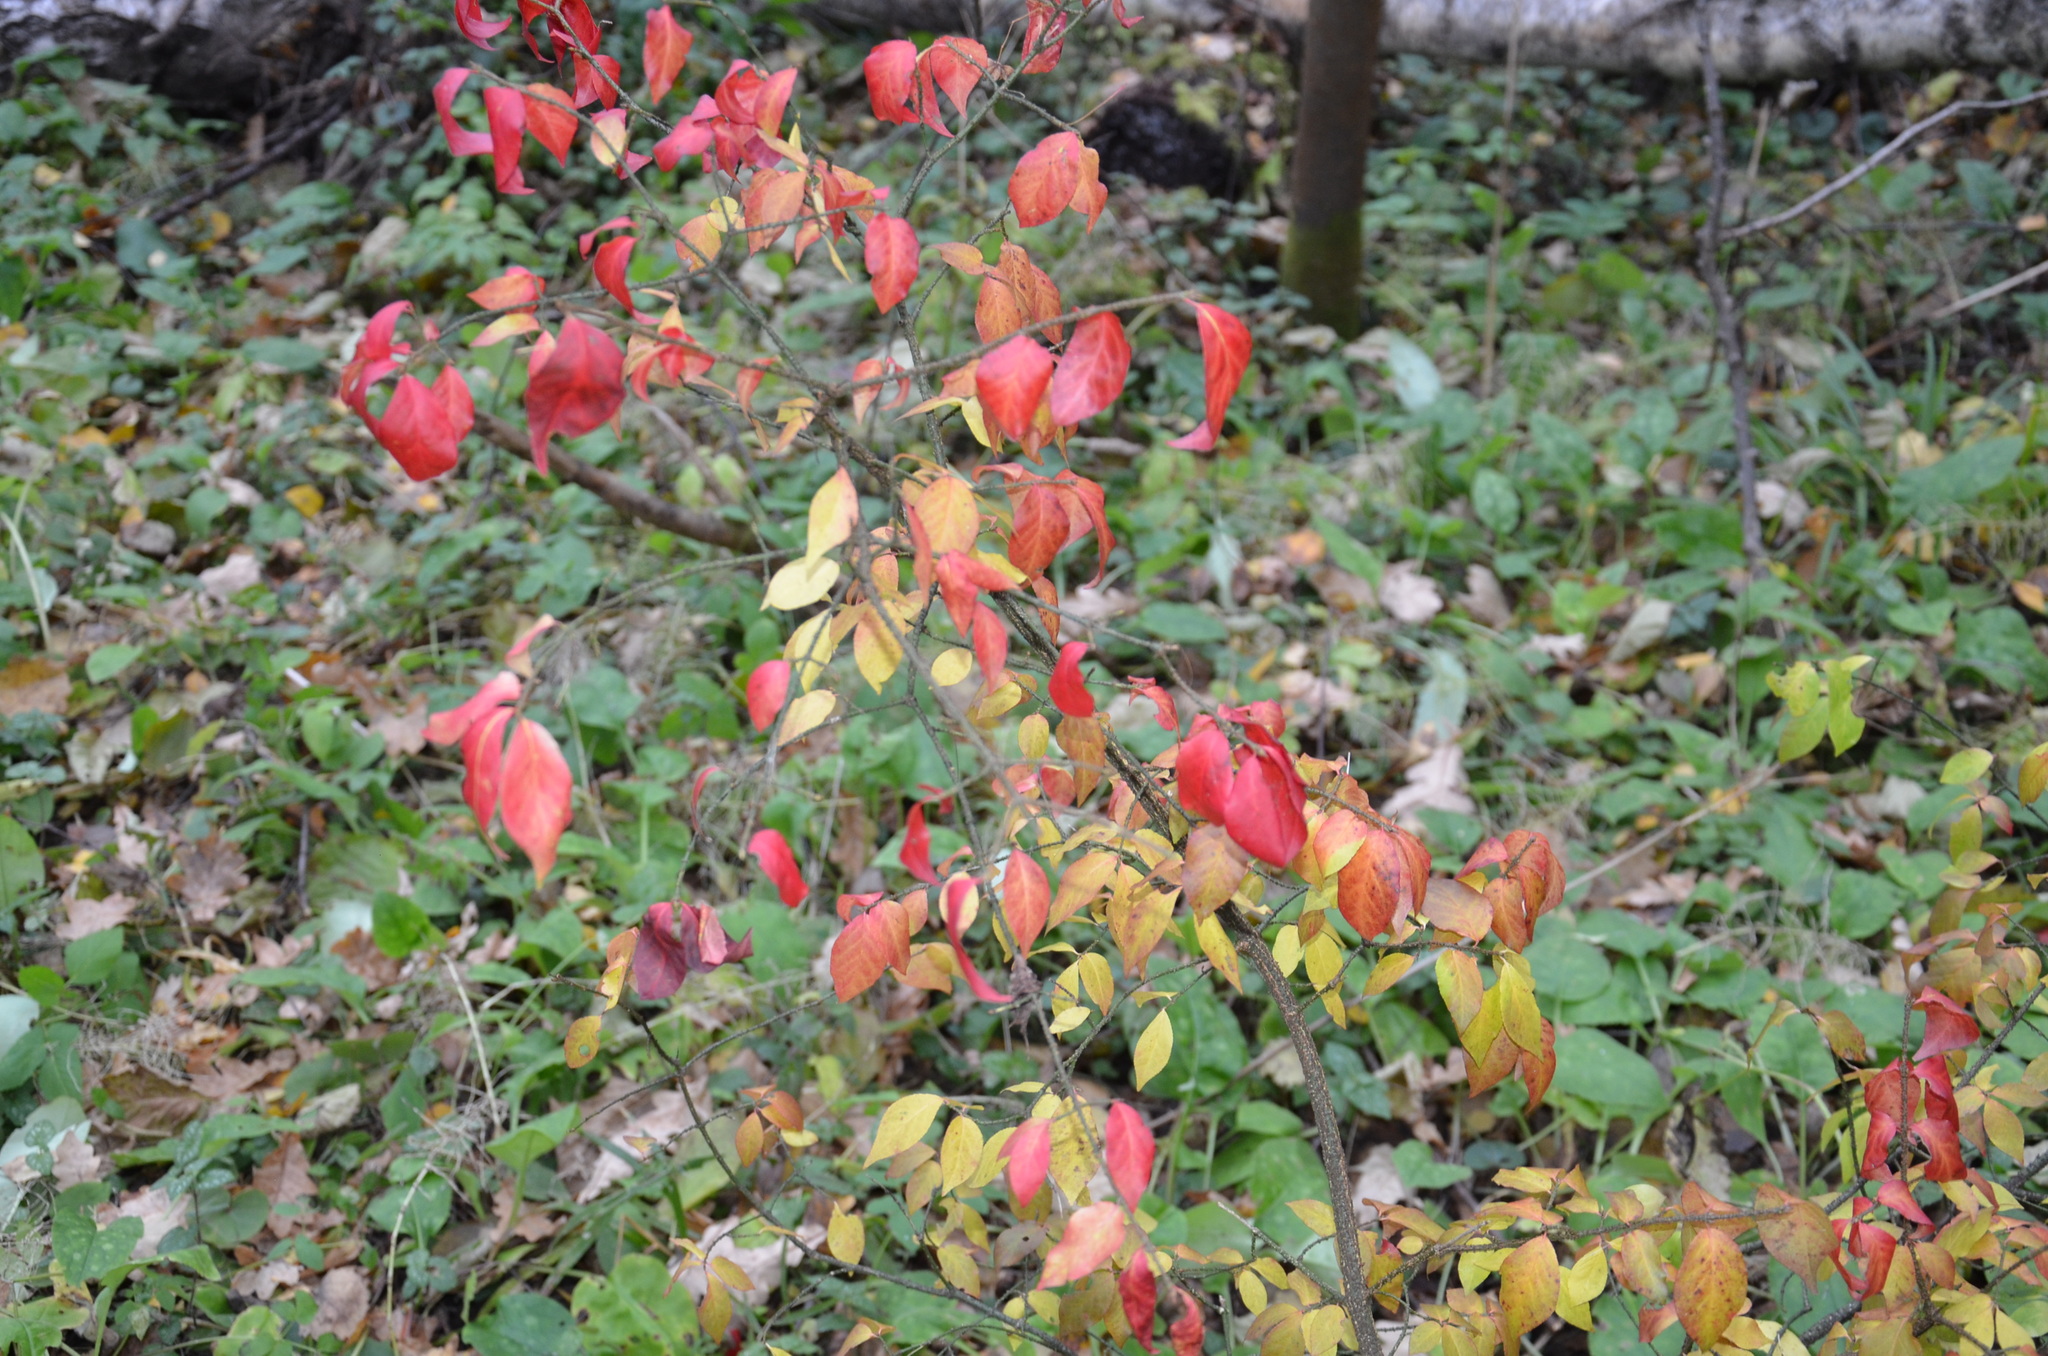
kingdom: Plantae
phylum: Tracheophyta
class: Magnoliopsida
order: Celastrales
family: Celastraceae
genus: Euonymus
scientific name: Euonymus verrucosus
